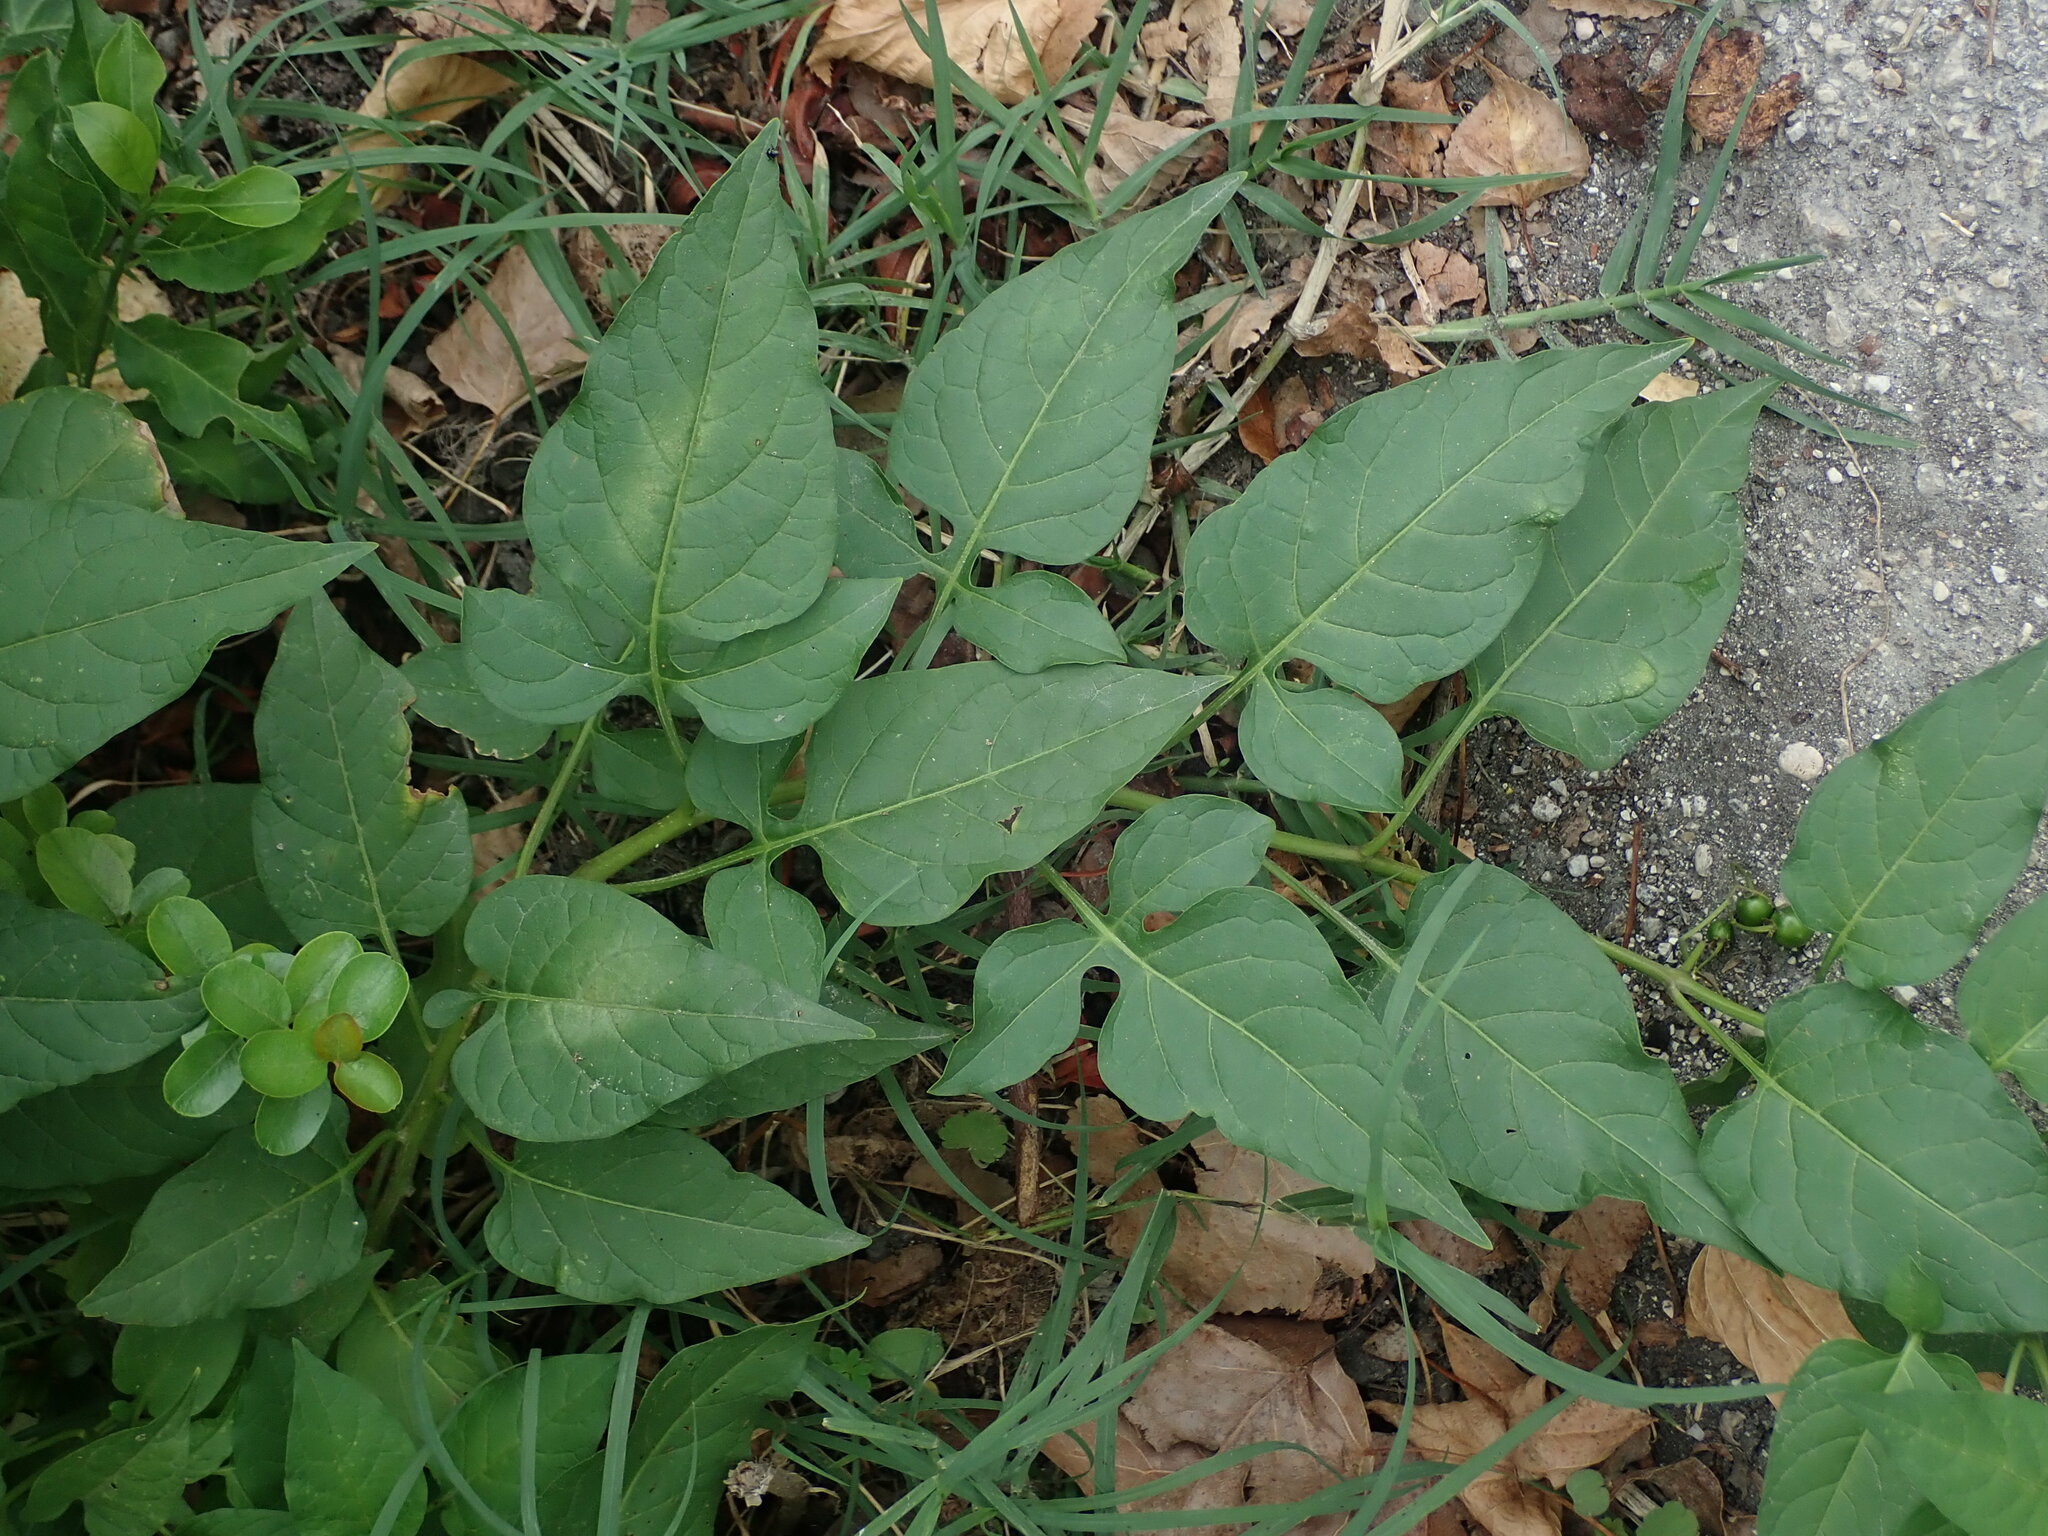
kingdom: Plantae
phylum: Tracheophyta
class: Magnoliopsida
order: Solanales
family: Solanaceae
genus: Solanum
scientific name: Solanum dulcamara
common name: Climbing nightshade
